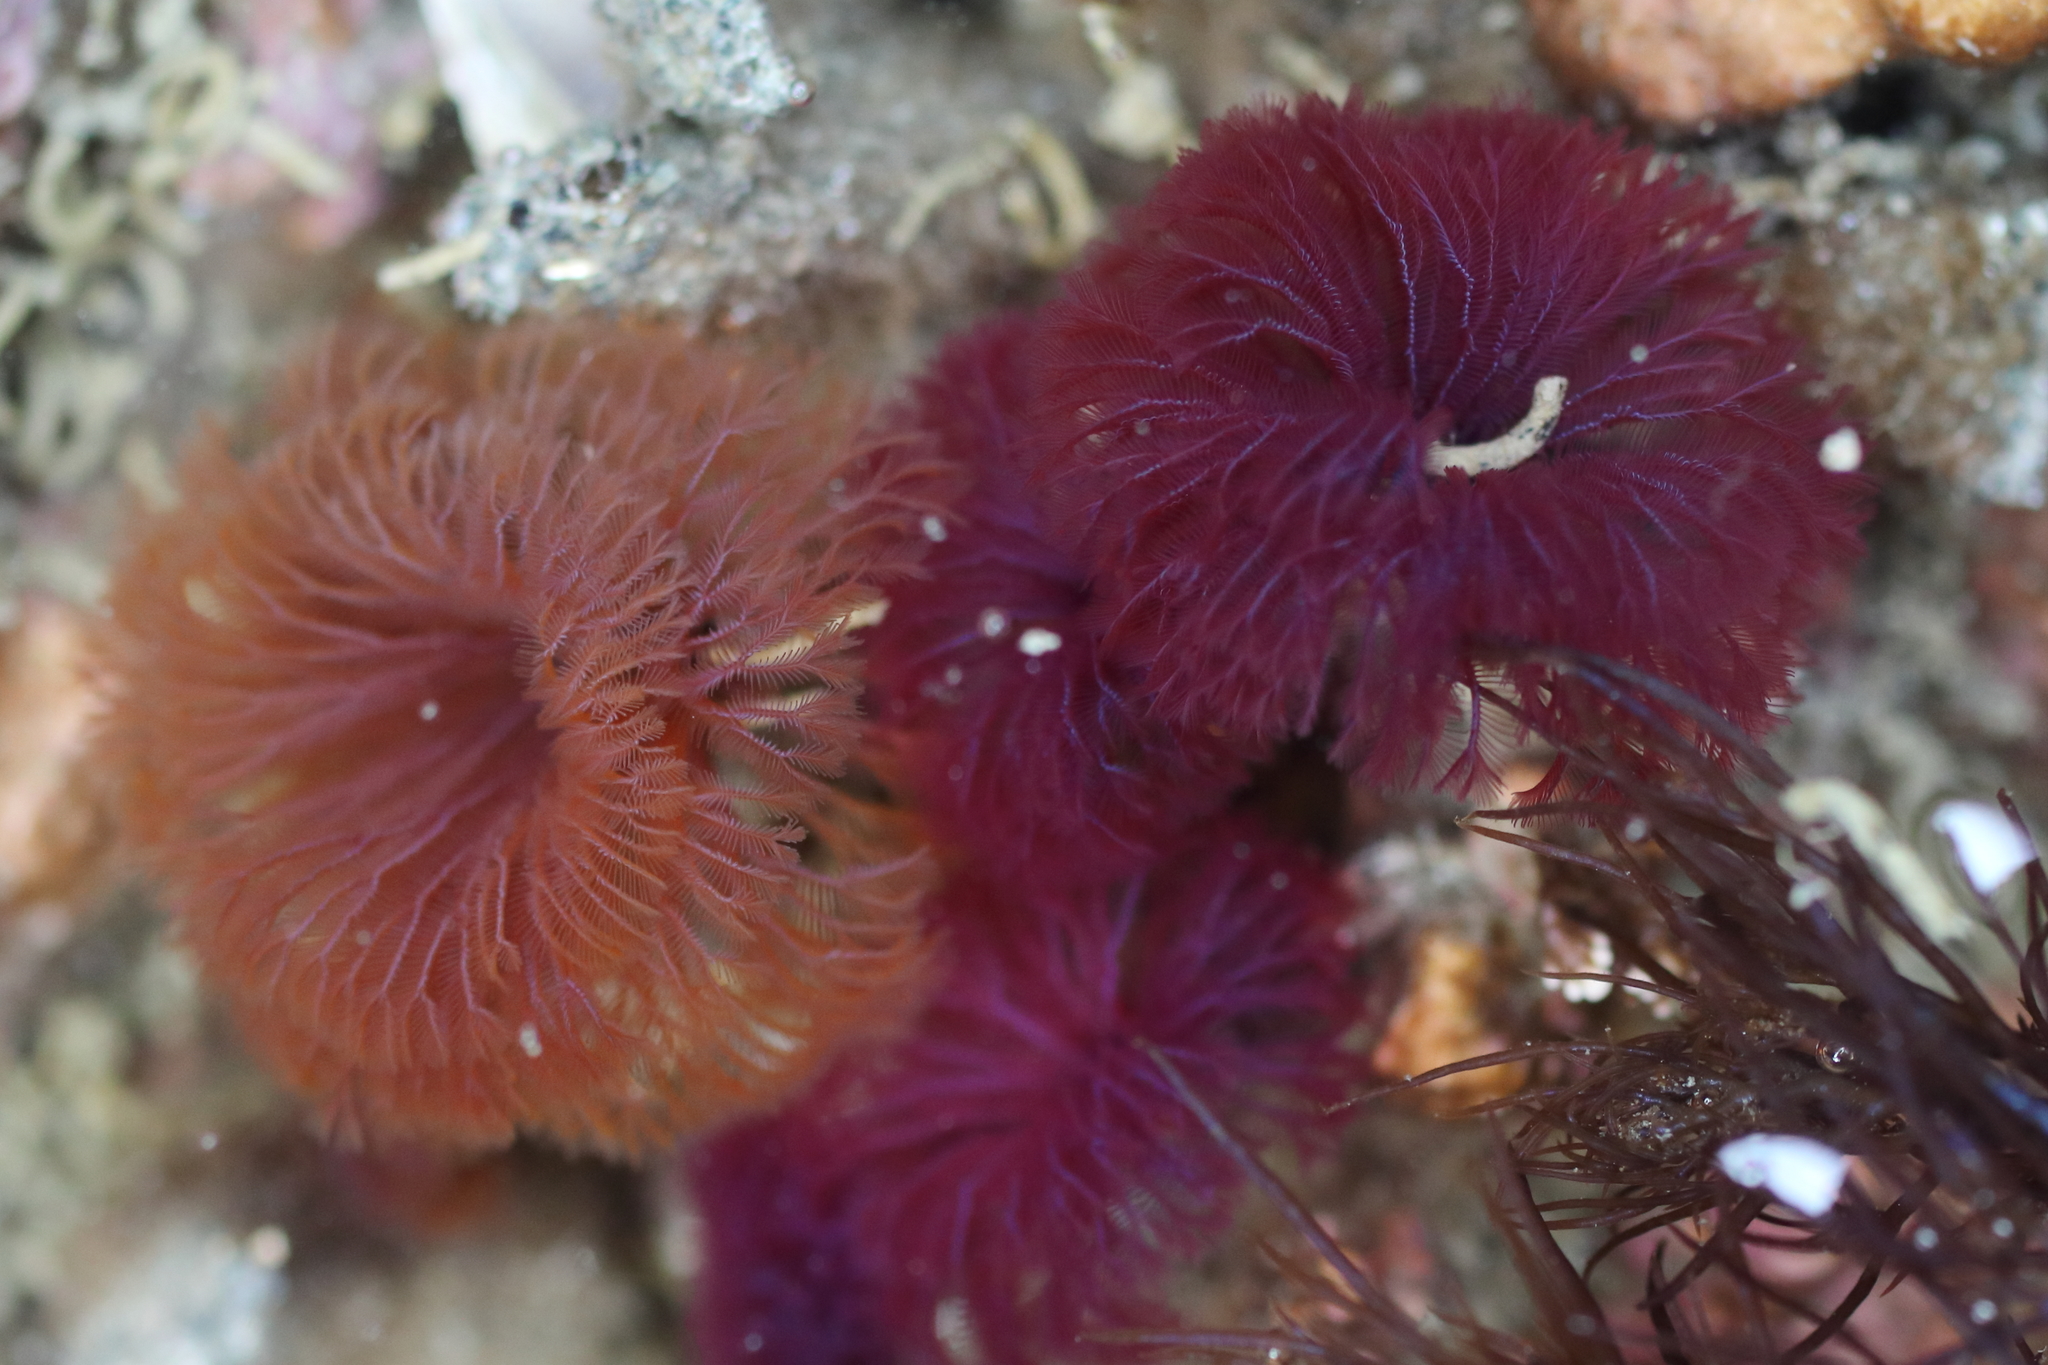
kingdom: Animalia
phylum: Annelida
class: Polychaeta
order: Sabellida
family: Sabellidae
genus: Schizobranchia
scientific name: Schizobranchia insignis
